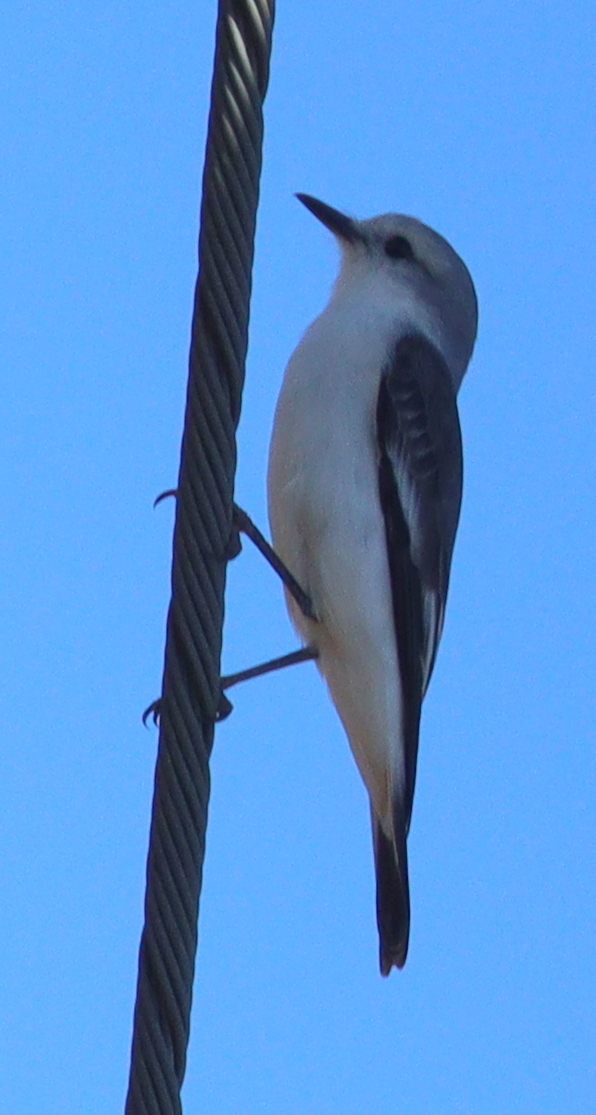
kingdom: Animalia
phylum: Chordata
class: Aves
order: Passeriformes
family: Tyrannidae
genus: Xolmis
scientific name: Xolmis velatus
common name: White-rumped monjita
